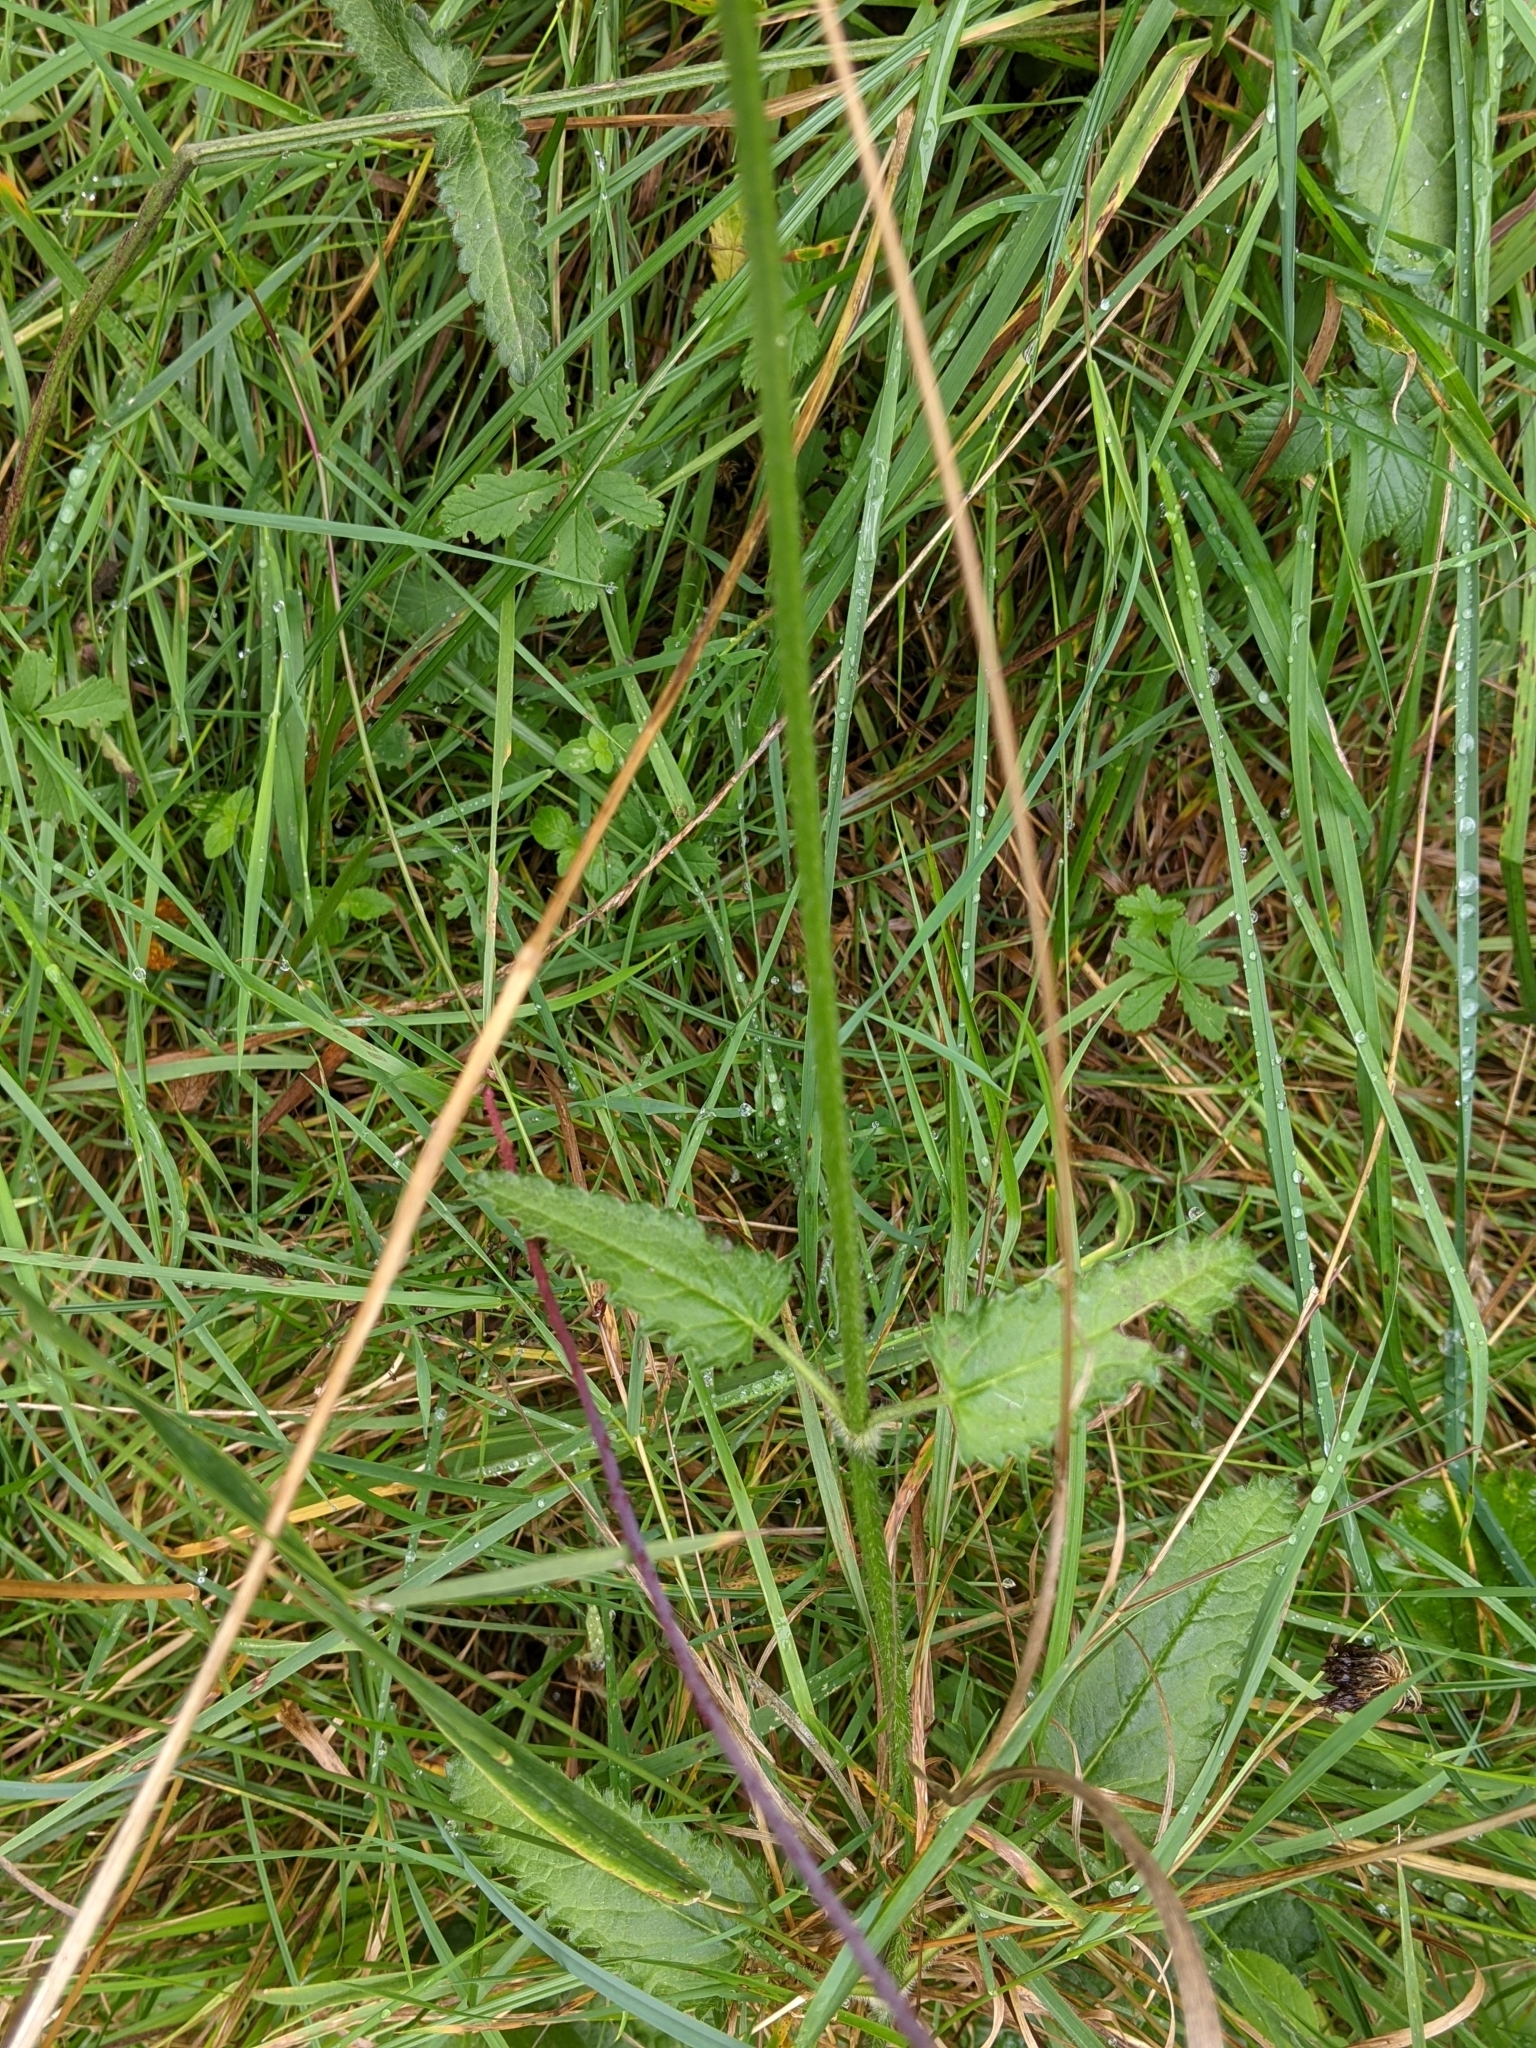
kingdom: Plantae
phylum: Tracheophyta
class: Magnoliopsida
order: Lamiales
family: Lamiaceae
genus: Betonica
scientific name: Betonica officinalis
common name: Bishop's-wort
